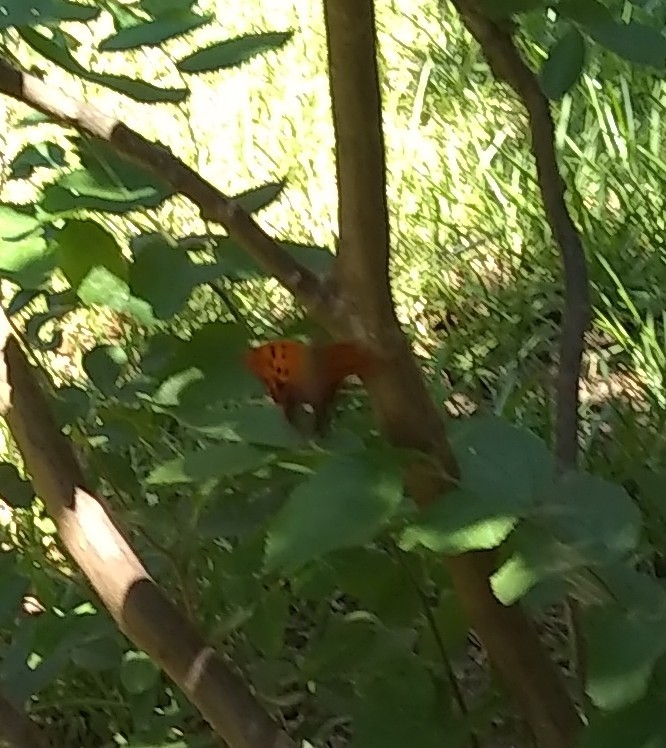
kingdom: Animalia
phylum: Arthropoda
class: Insecta
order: Lepidoptera
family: Nymphalidae
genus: Polygonia
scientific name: Polygonia interrogationis
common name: Question mark
